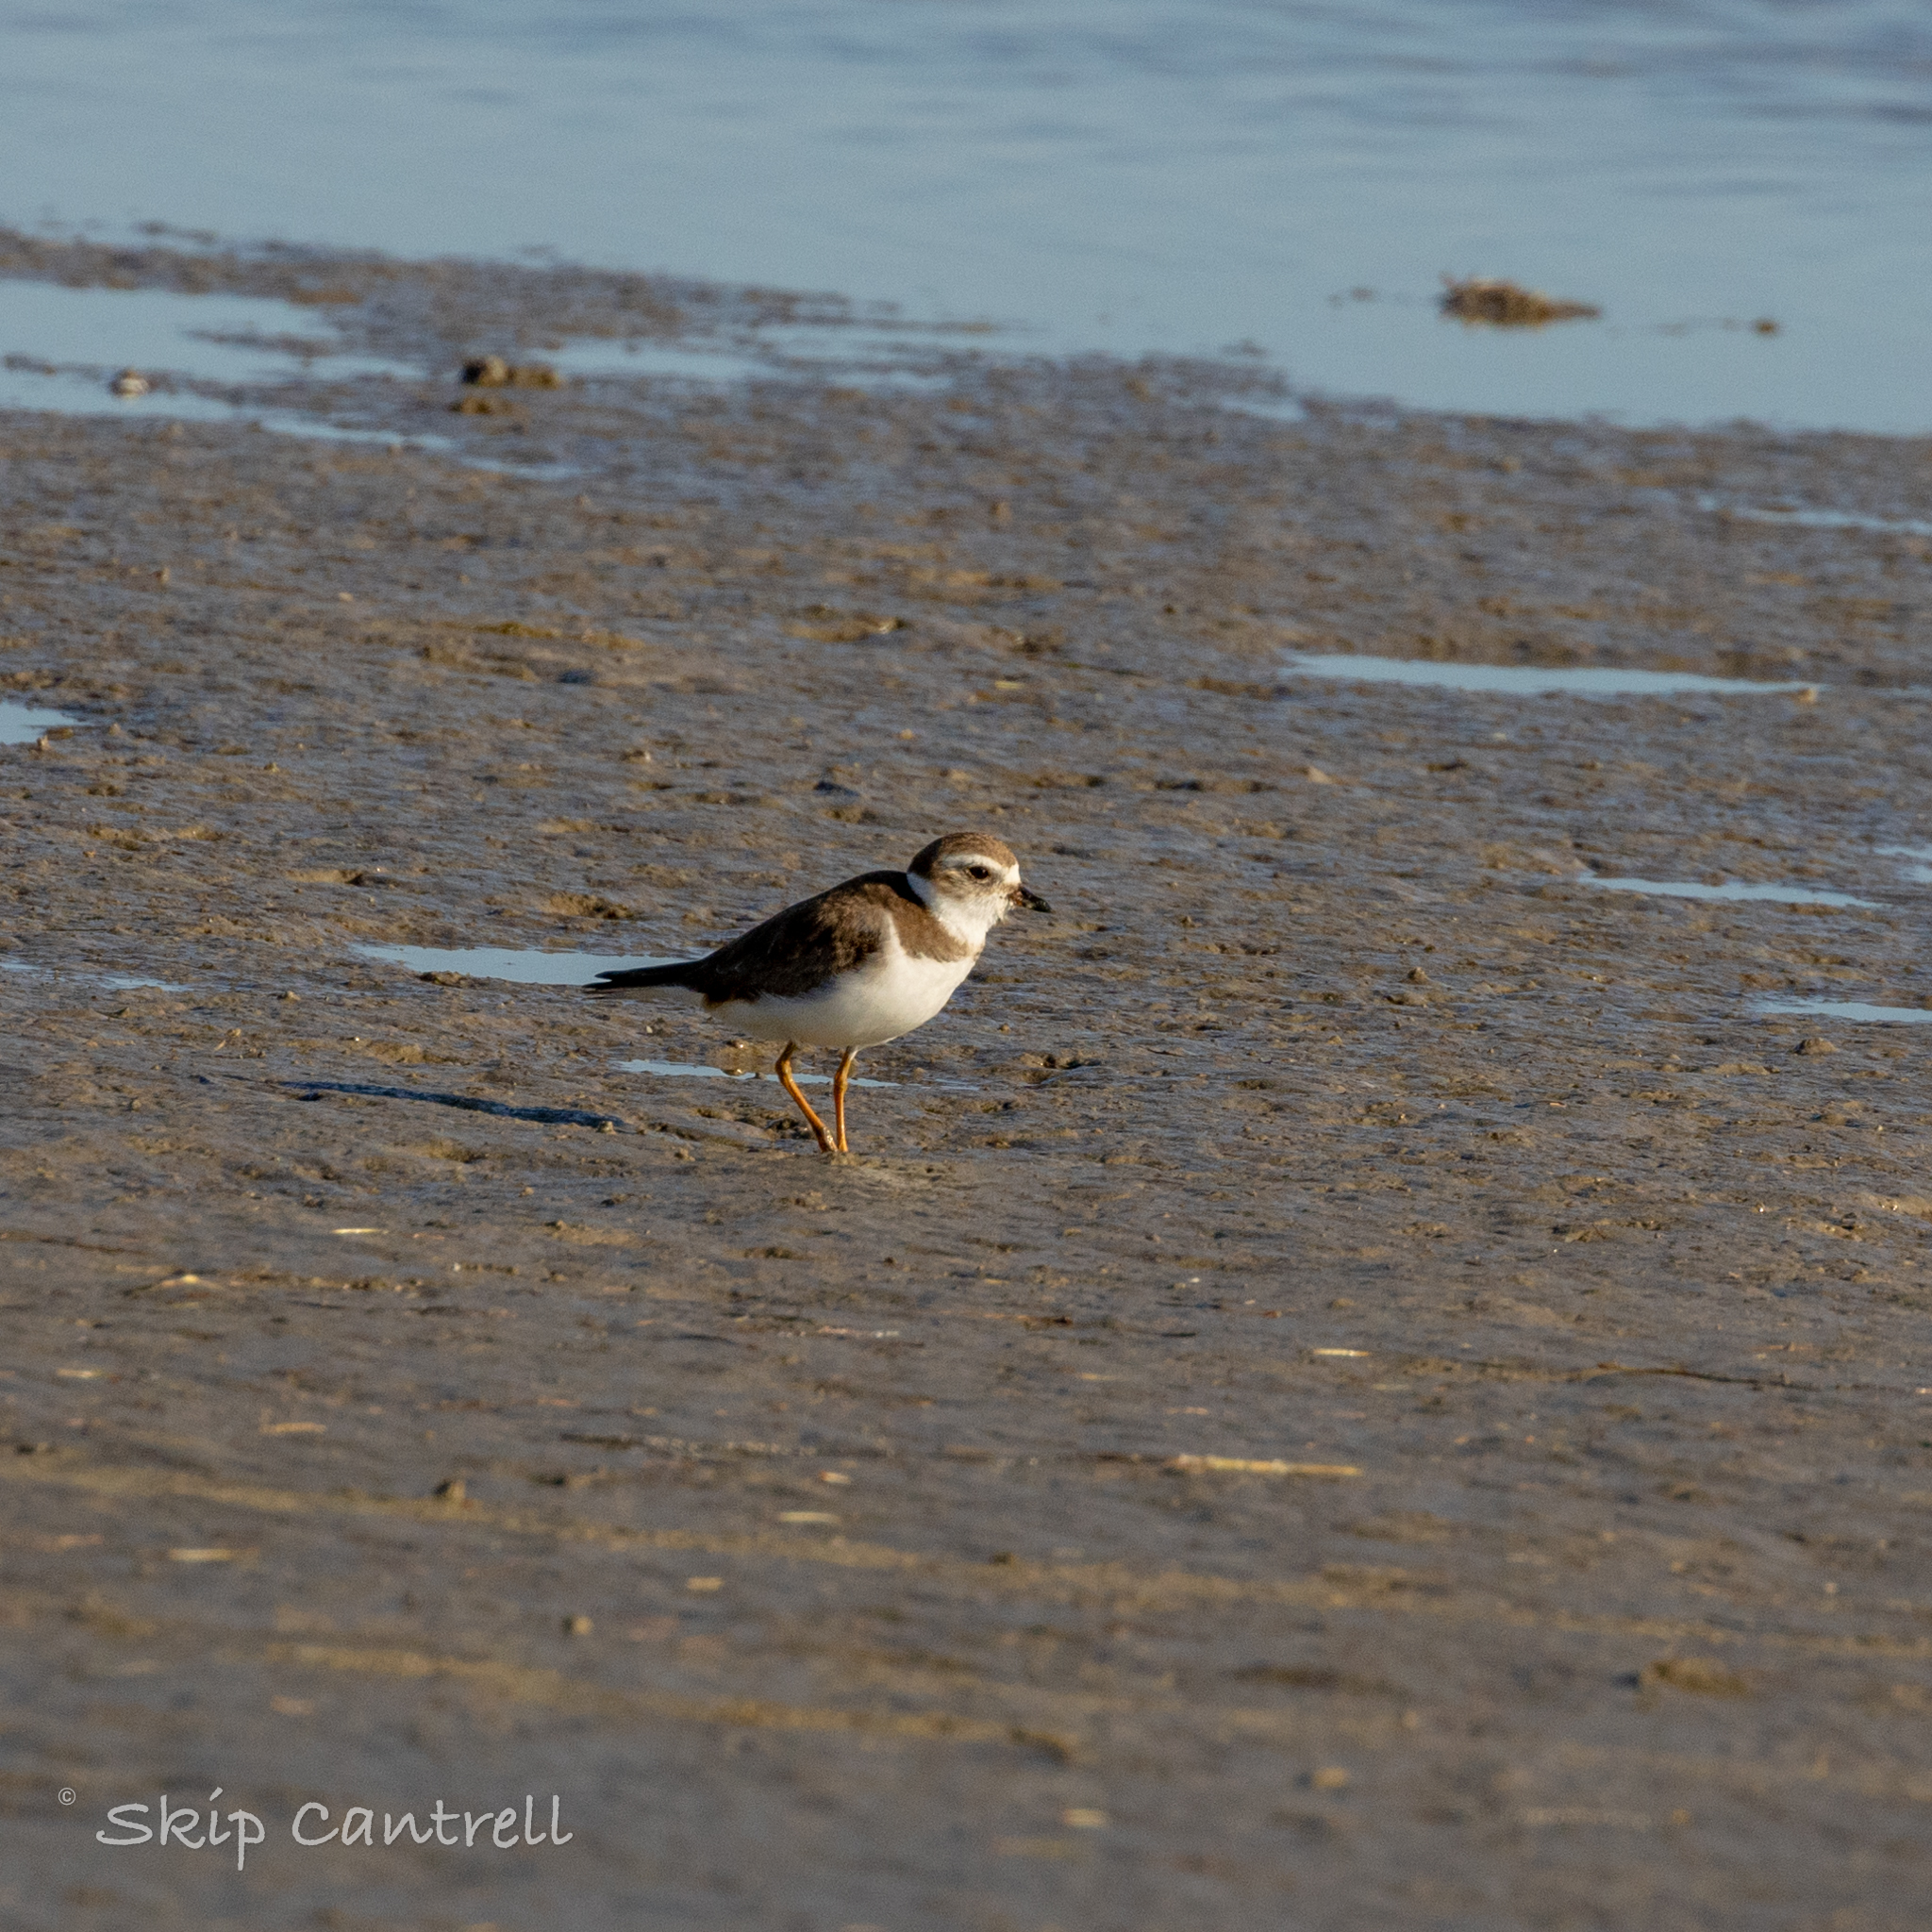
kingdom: Animalia
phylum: Chordata
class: Aves
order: Charadriiformes
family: Charadriidae
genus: Charadrius
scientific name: Charadrius semipalmatus
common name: Semipalmated plover
